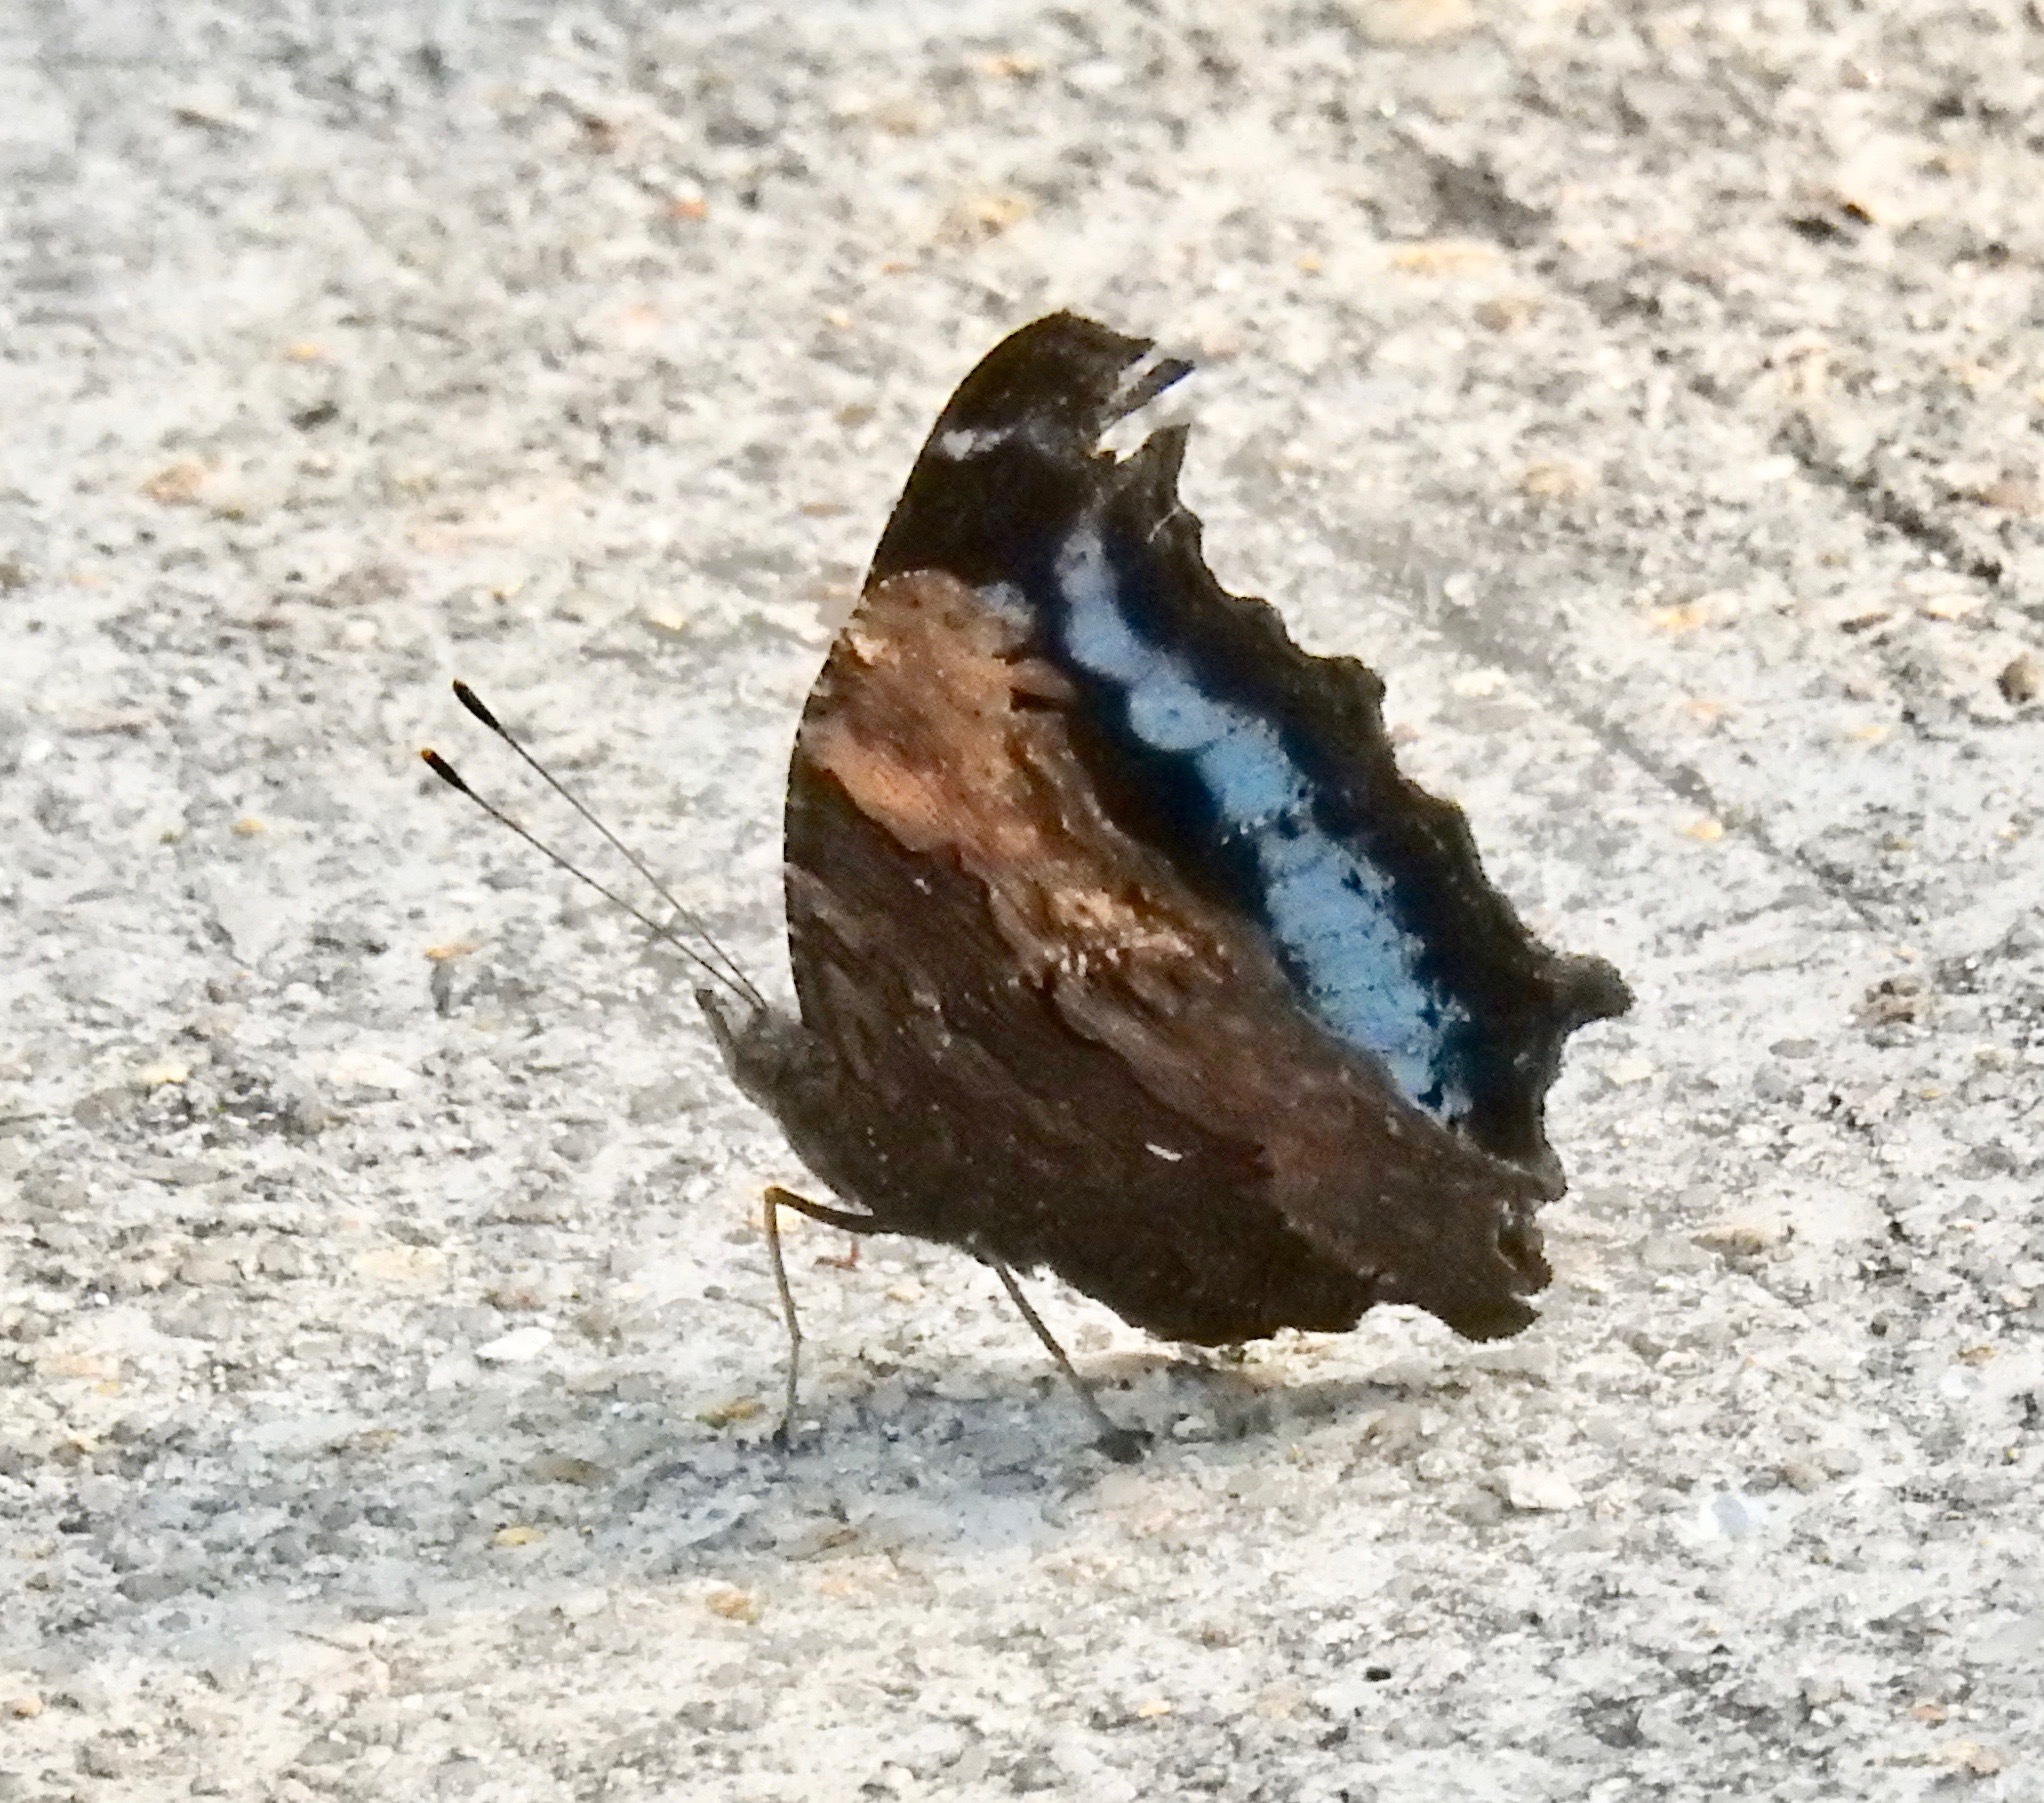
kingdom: Animalia
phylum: Arthropoda
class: Insecta
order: Lepidoptera
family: Nymphalidae
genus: Vanessa
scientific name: Vanessa Kaniska canace
